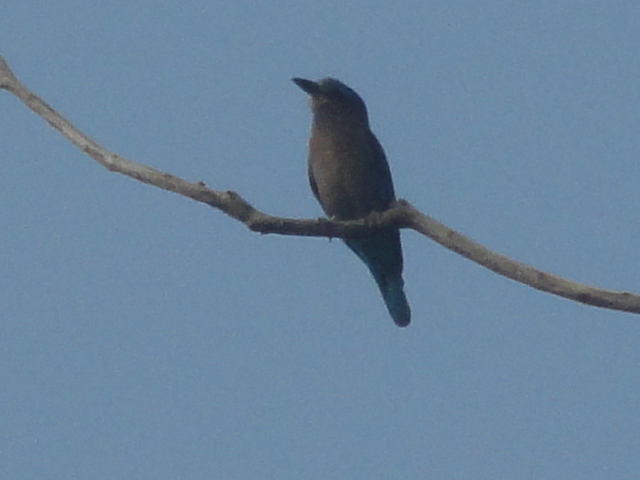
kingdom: Animalia
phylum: Chordata
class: Aves
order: Coraciiformes
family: Coraciidae
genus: Coracias
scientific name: Coracias affinis
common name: Indochinese roller
